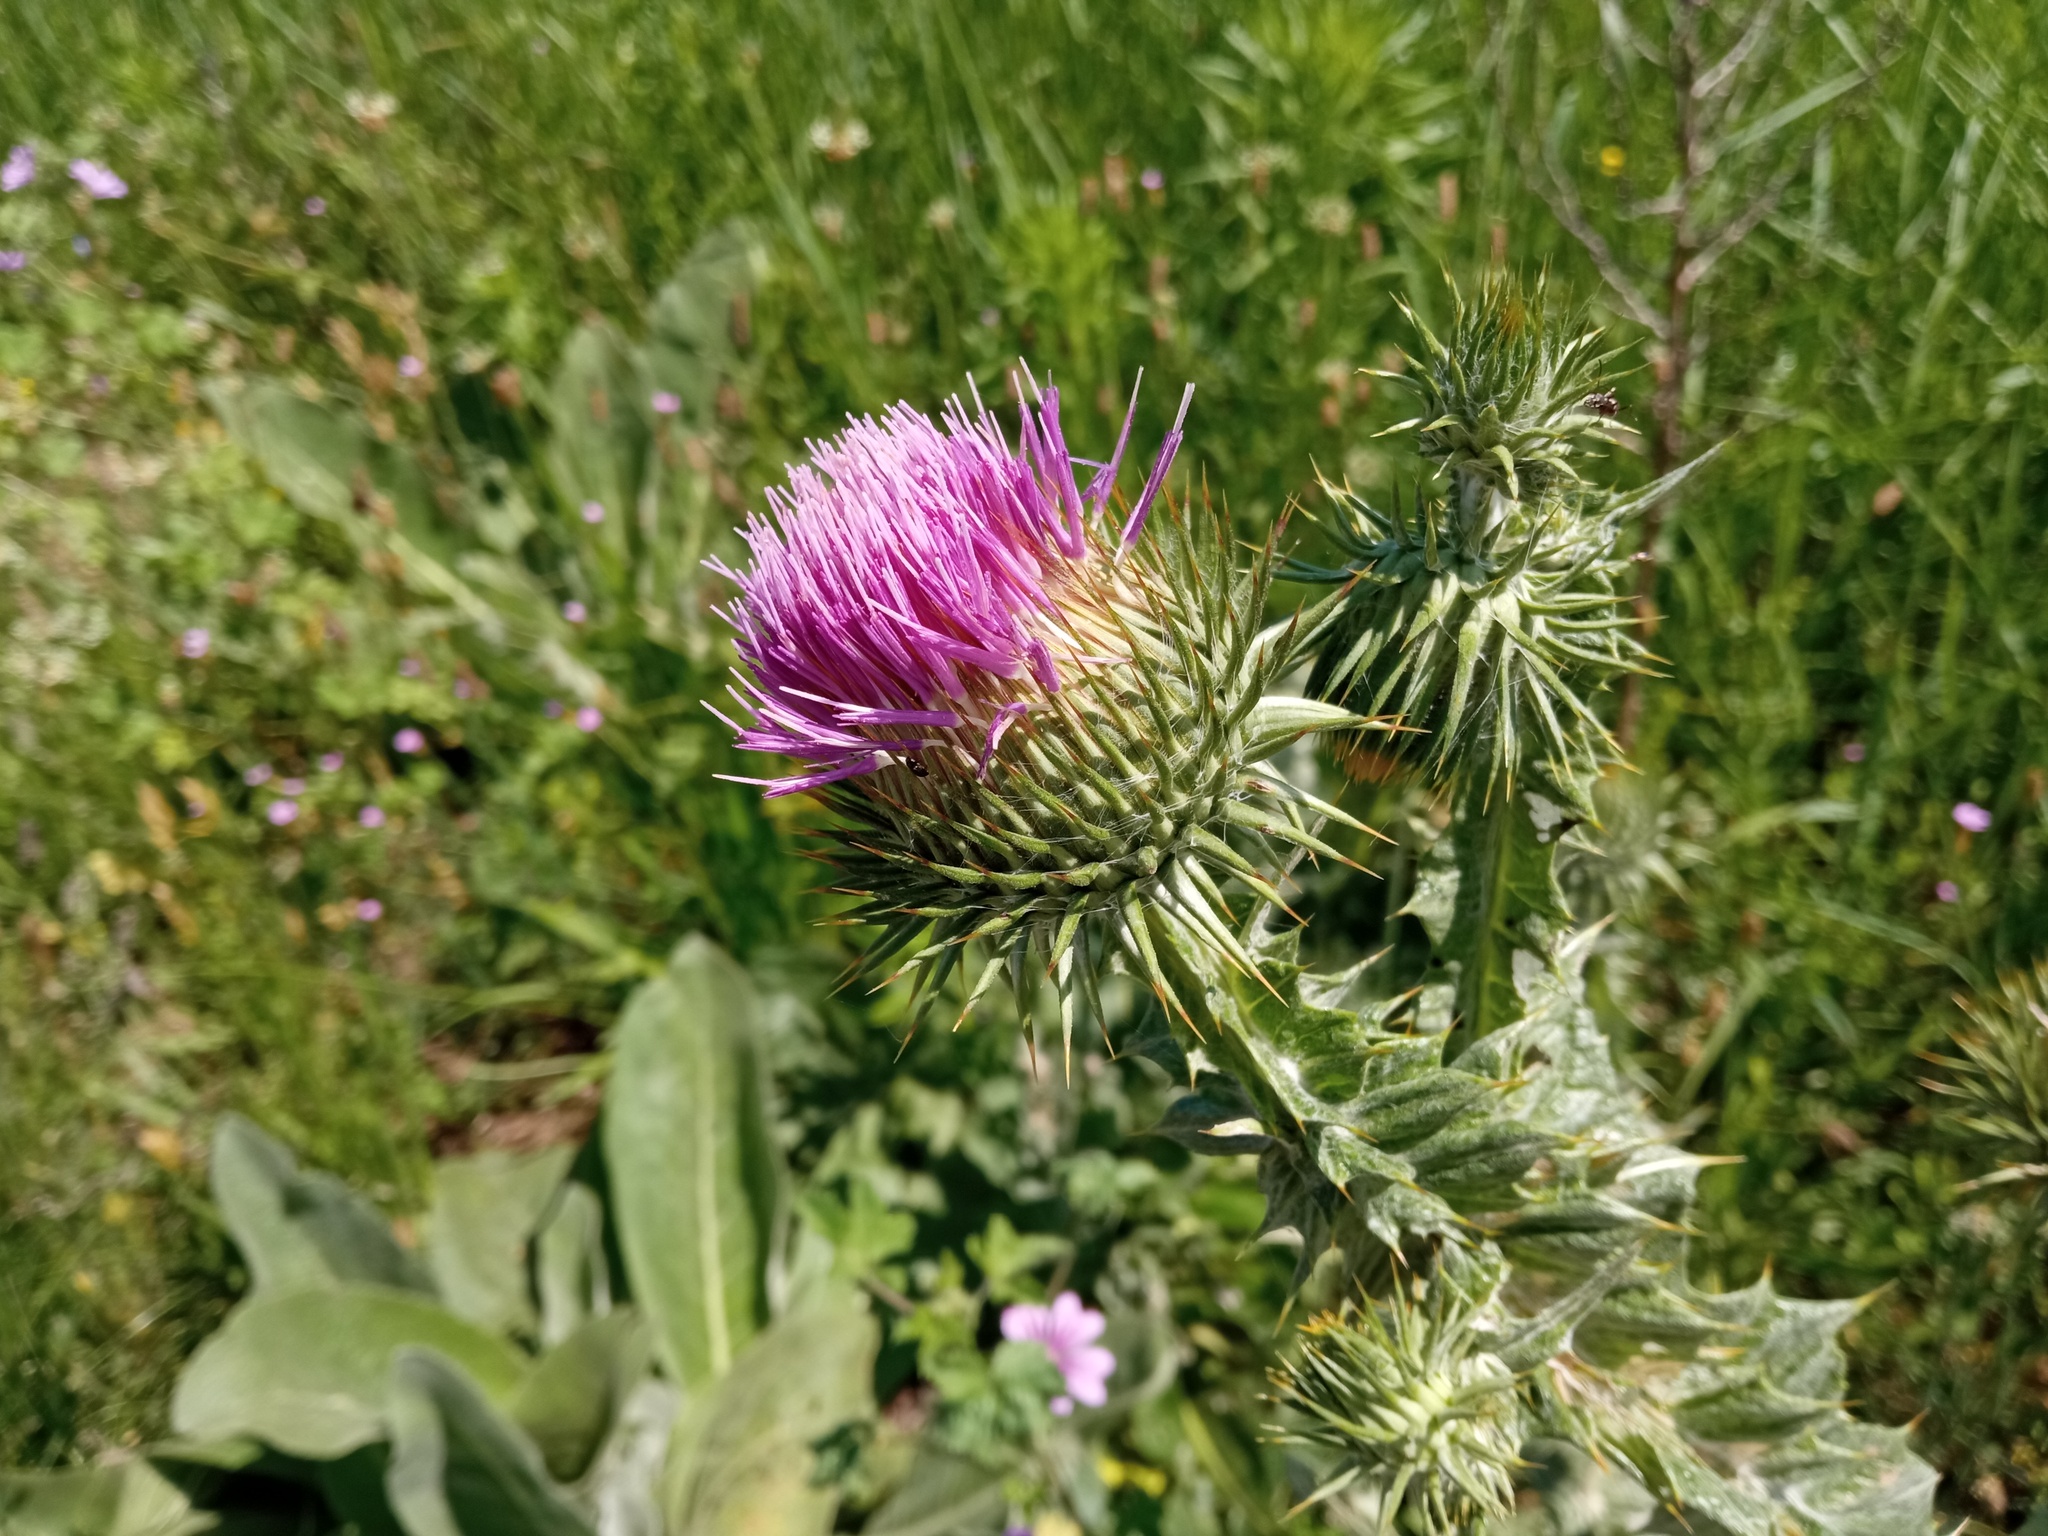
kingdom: Plantae
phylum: Tracheophyta
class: Magnoliopsida
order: Asterales
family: Asteraceae
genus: Onopordum
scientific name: Onopordum acanthium
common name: Scotch thistle
